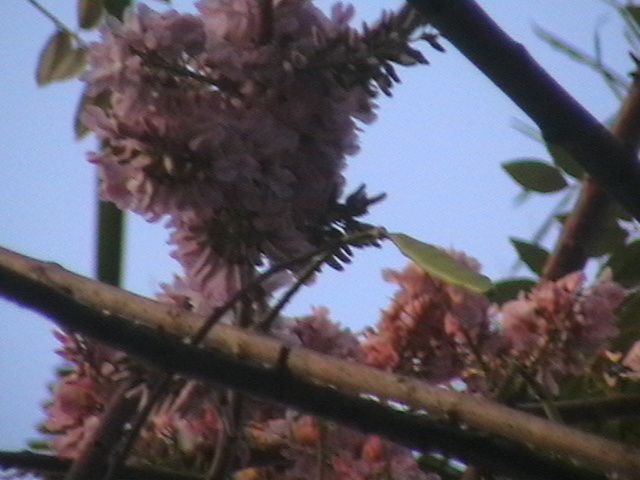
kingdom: Plantae
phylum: Tracheophyta
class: Magnoliopsida
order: Fabales
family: Fabaceae
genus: Gliricidia
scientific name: Gliricidia sepium
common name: Quickstick
